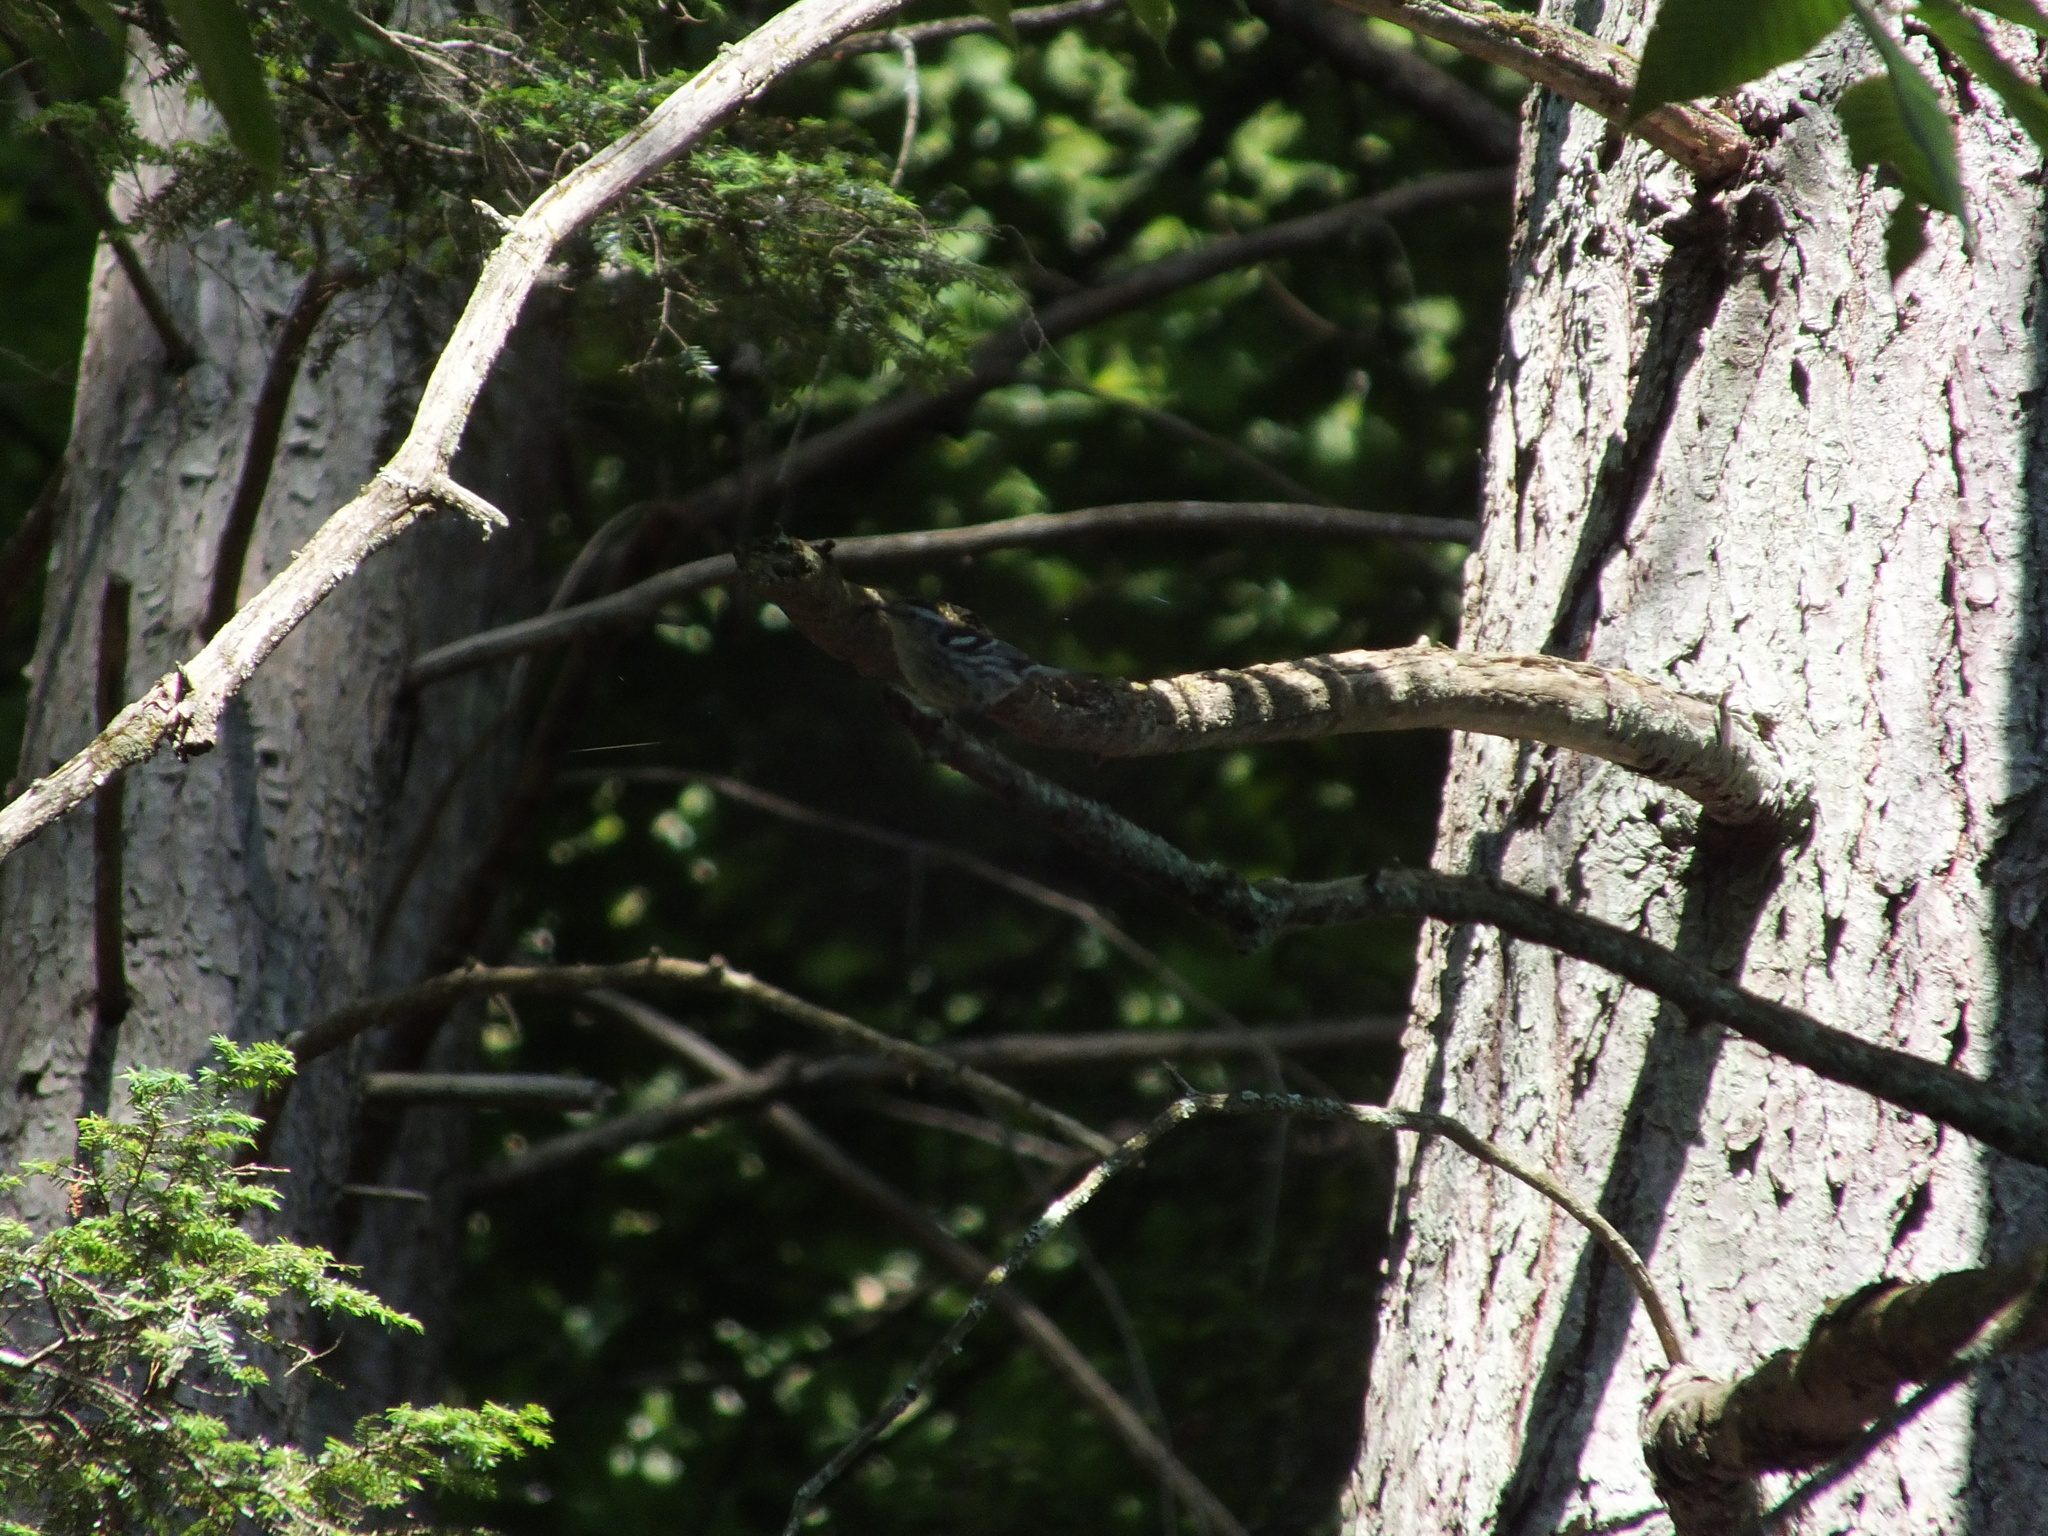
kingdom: Animalia
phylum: Chordata
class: Aves
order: Passeriformes
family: Parulidae
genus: Mniotilta
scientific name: Mniotilta varia
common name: Black-and-white warbler
